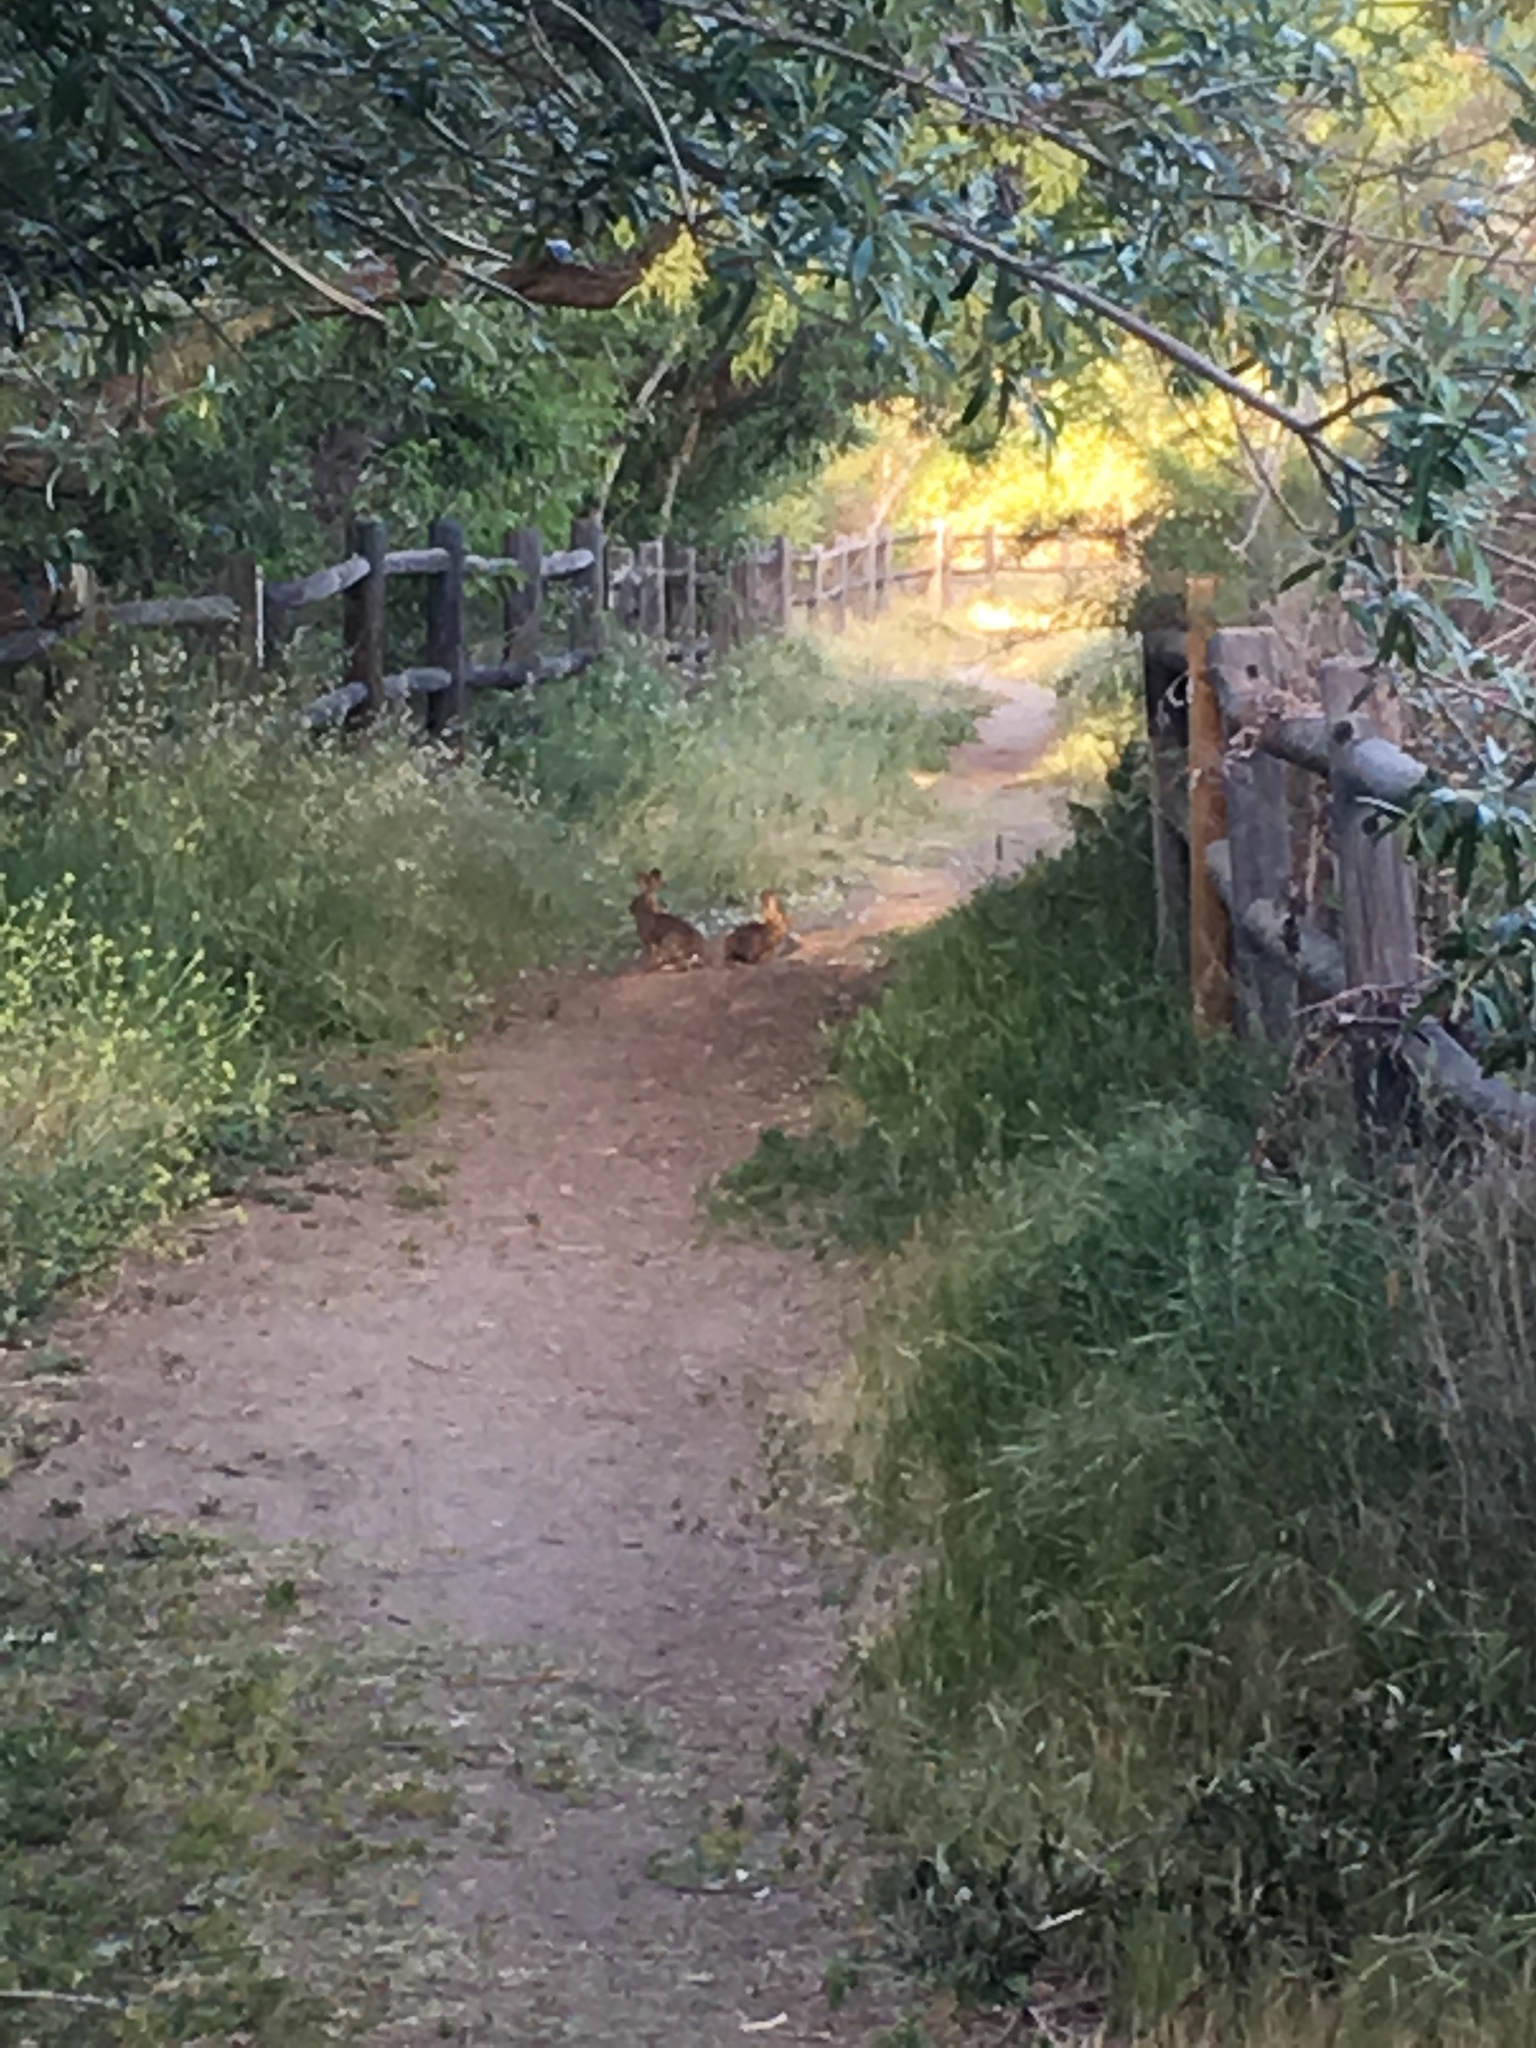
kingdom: Animalia
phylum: Chordata
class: Mammalia
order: Lagomorpha
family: Leporidae
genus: Sylvilagus
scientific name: Sylvilagus audubonii
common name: Desert cottontail
